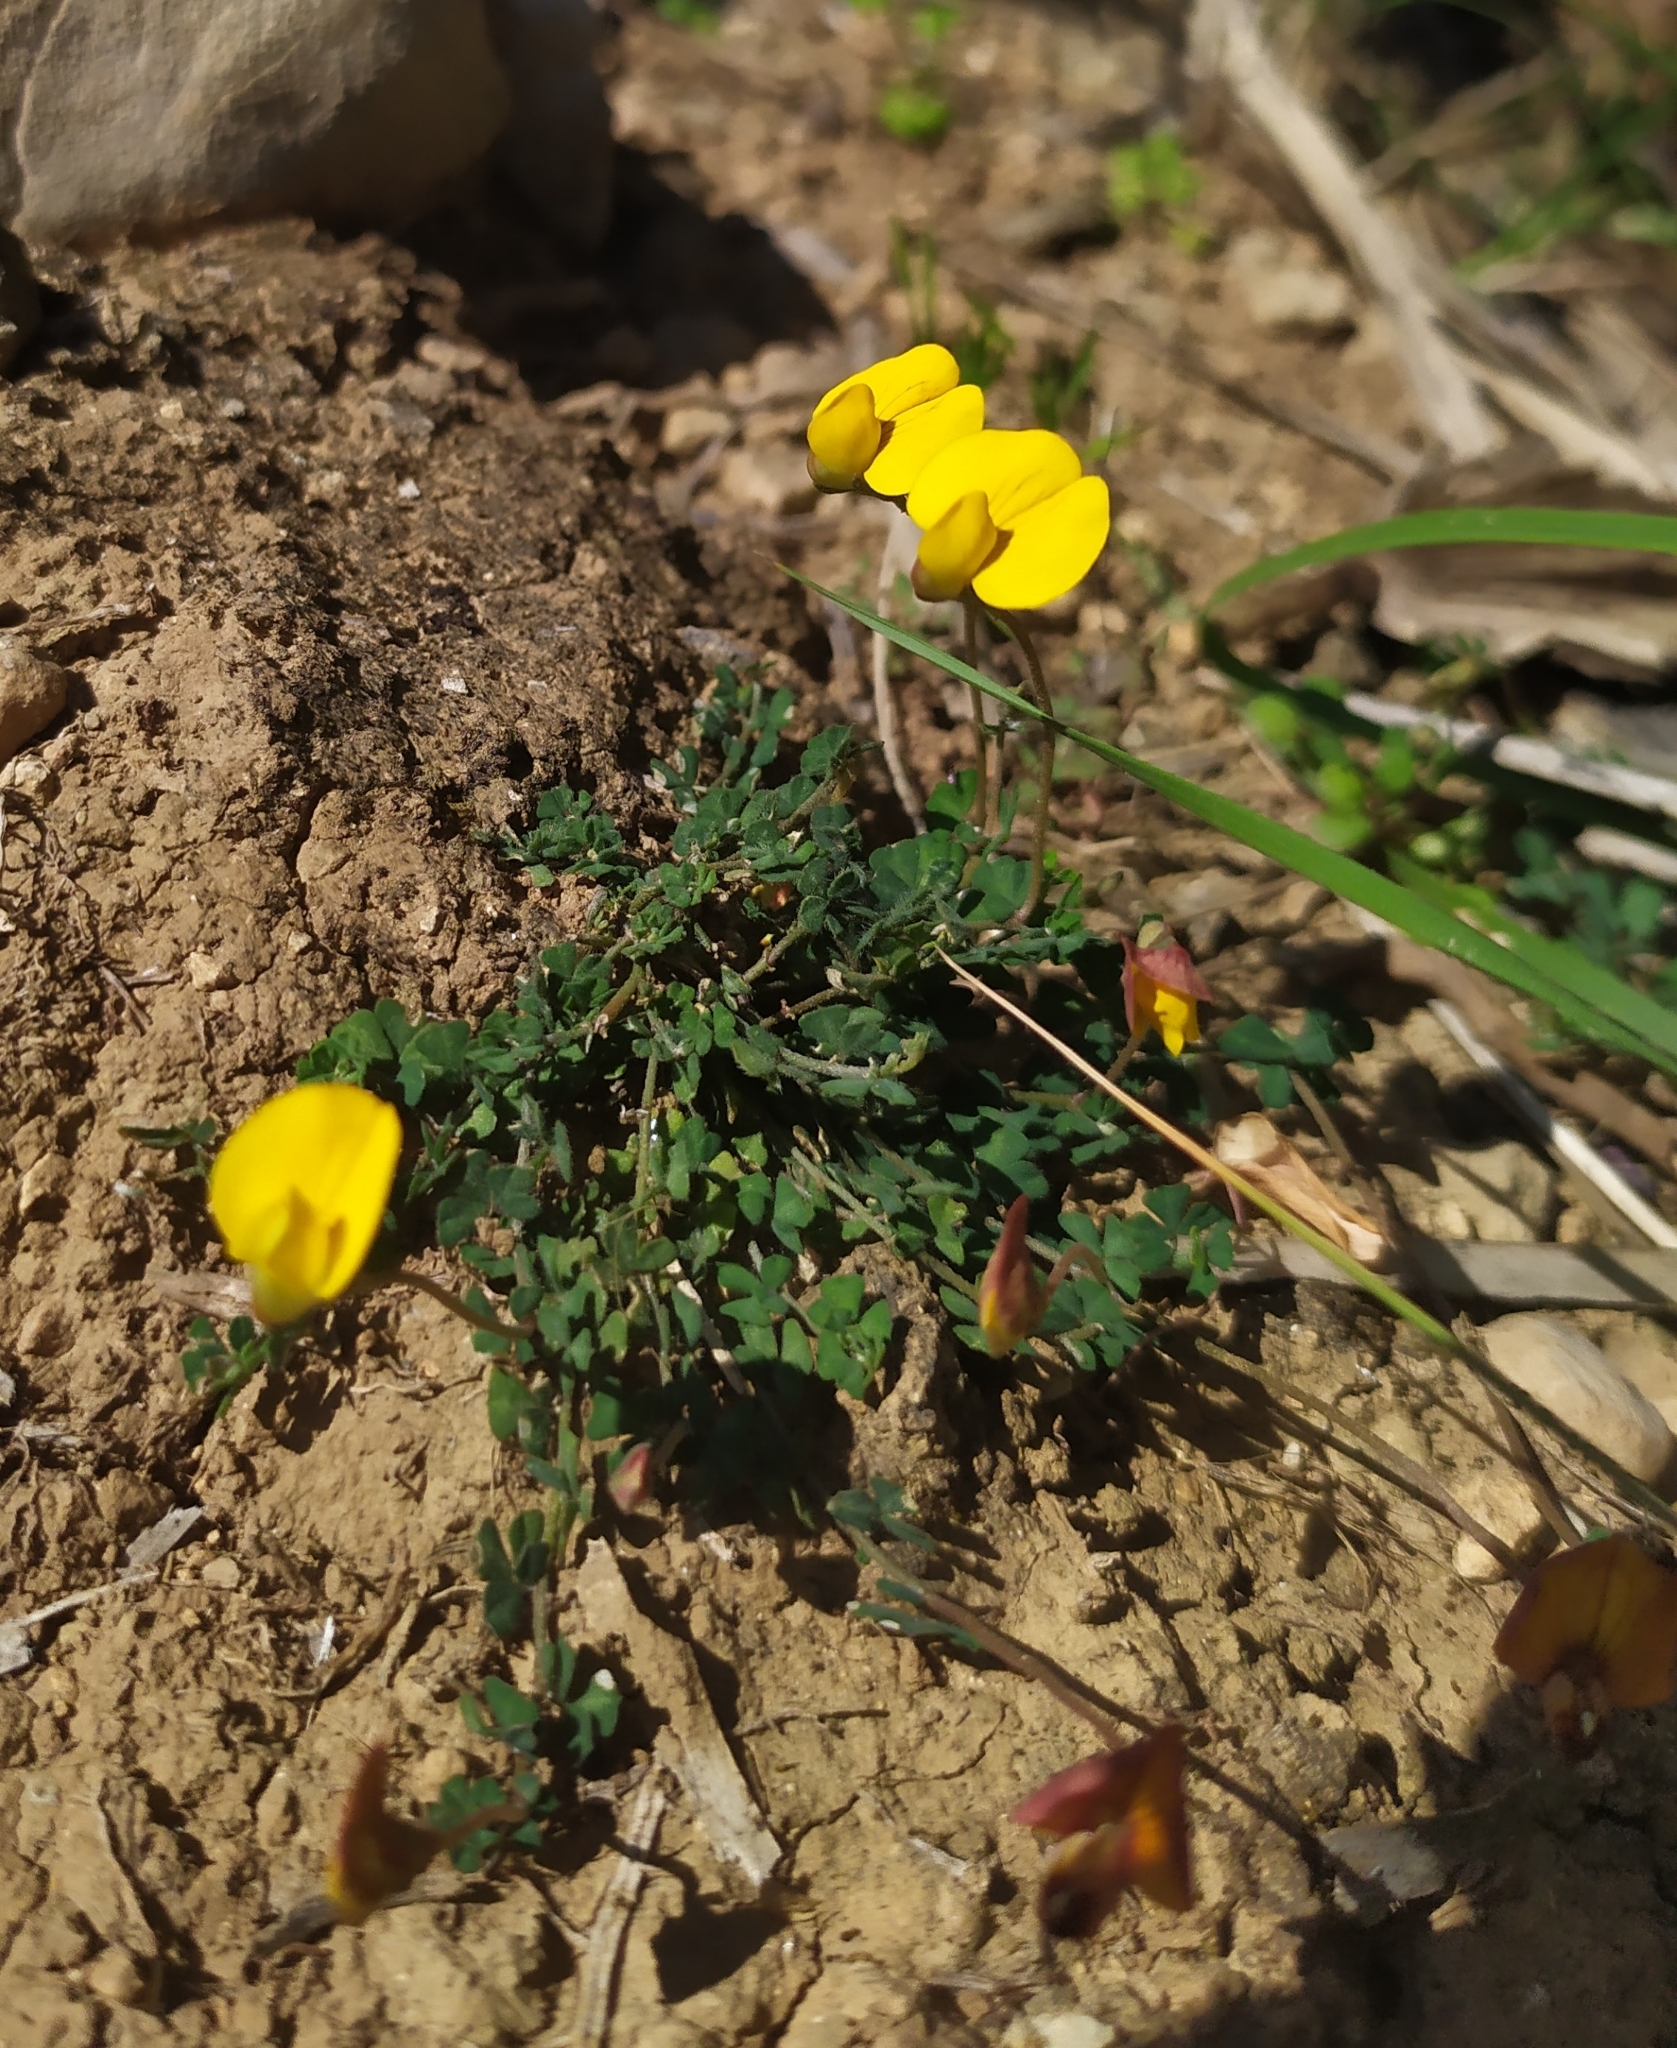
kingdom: Plantae
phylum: Tracheophyta
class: Magnoliopsida
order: Fabales
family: Fabaceae
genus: Lotus
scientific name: Lotus tetraphyllus
